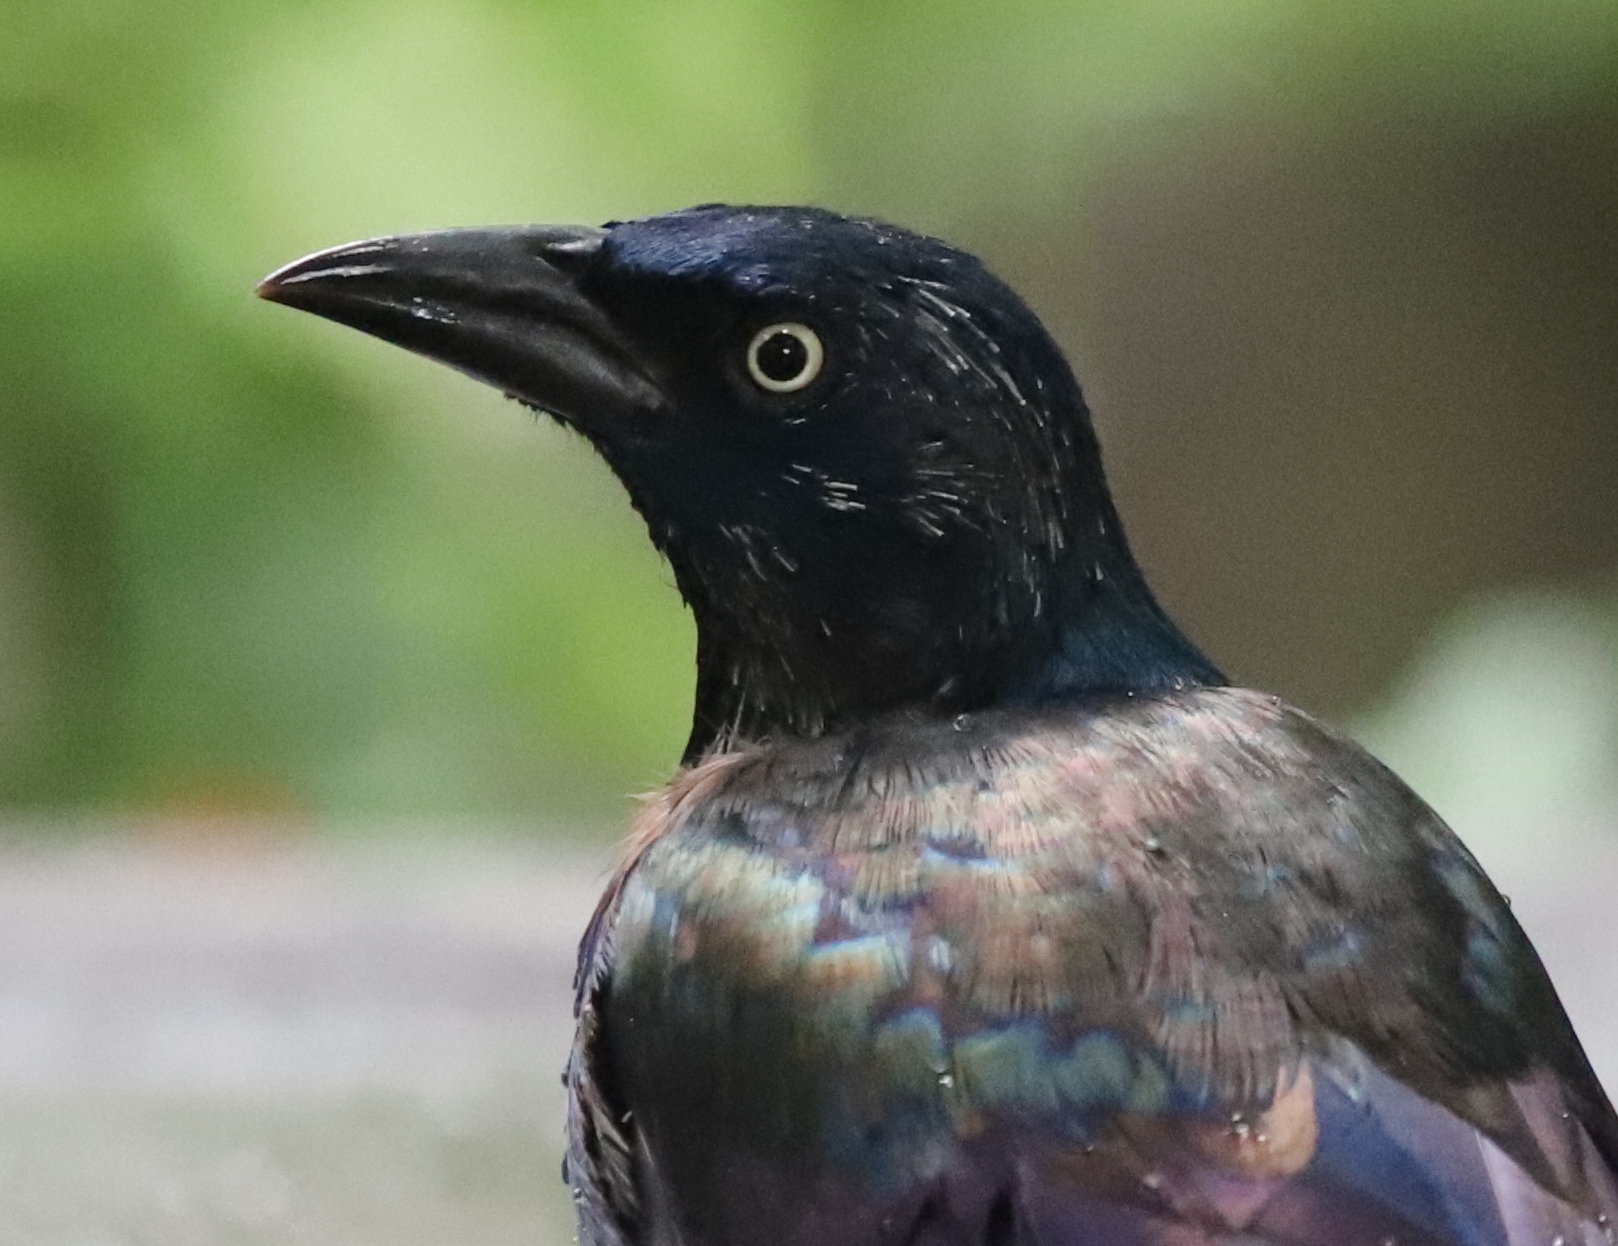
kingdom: Animalia
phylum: Chordata
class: Aves
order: Passeriformes
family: Icteridae
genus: Quiscalus
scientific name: Quiscalus quiscula
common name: Common grackle
